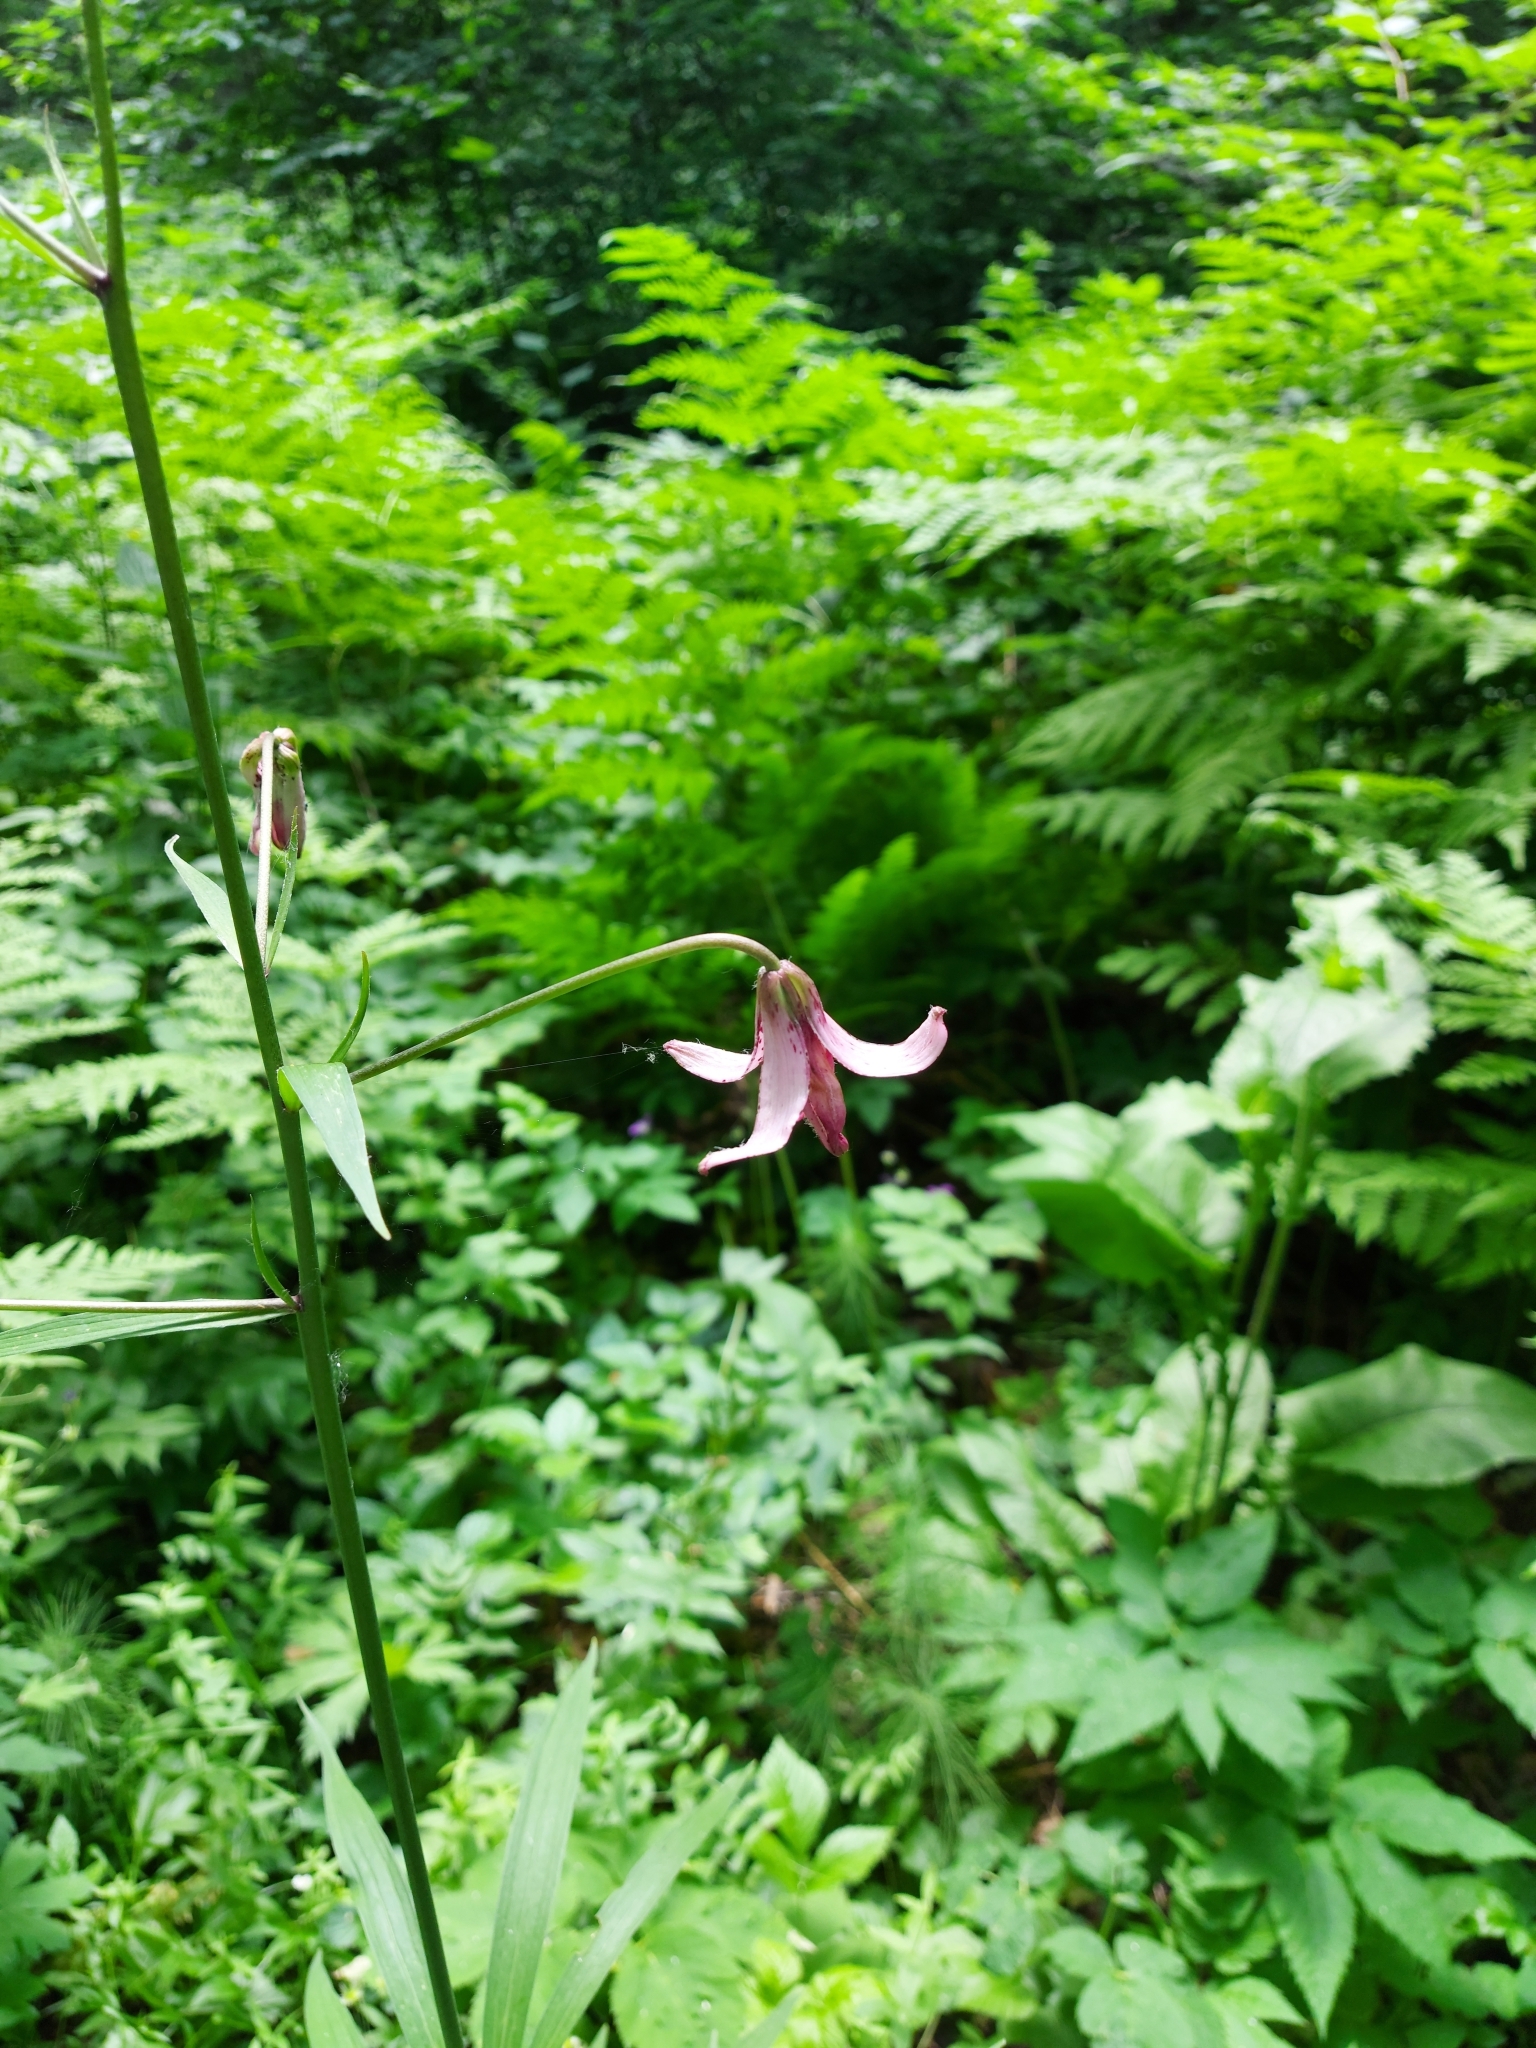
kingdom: Plantae
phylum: Tracheophyta
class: Liliopsida
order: Liliales
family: Liliaceae
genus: Lilium
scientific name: Lilium martagon
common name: Martagon lily
